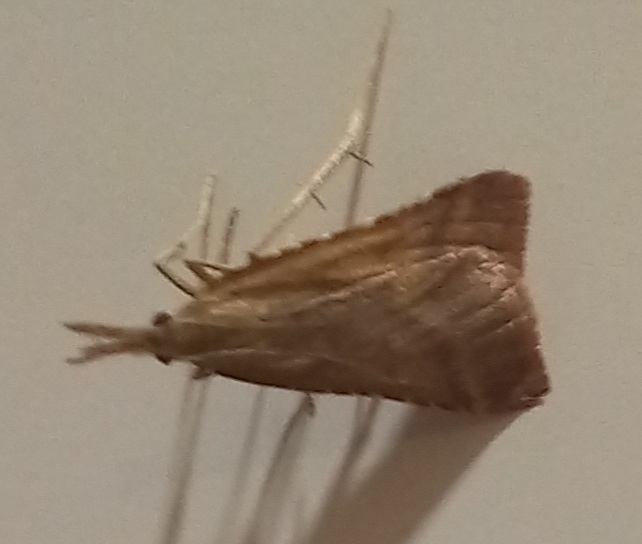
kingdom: Animalia
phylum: Arthropoda
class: Insecta
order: Lepidoptera
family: Pyralidae
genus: Synaphe
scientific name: Synaphe punctalis
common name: Long-legged tabby
